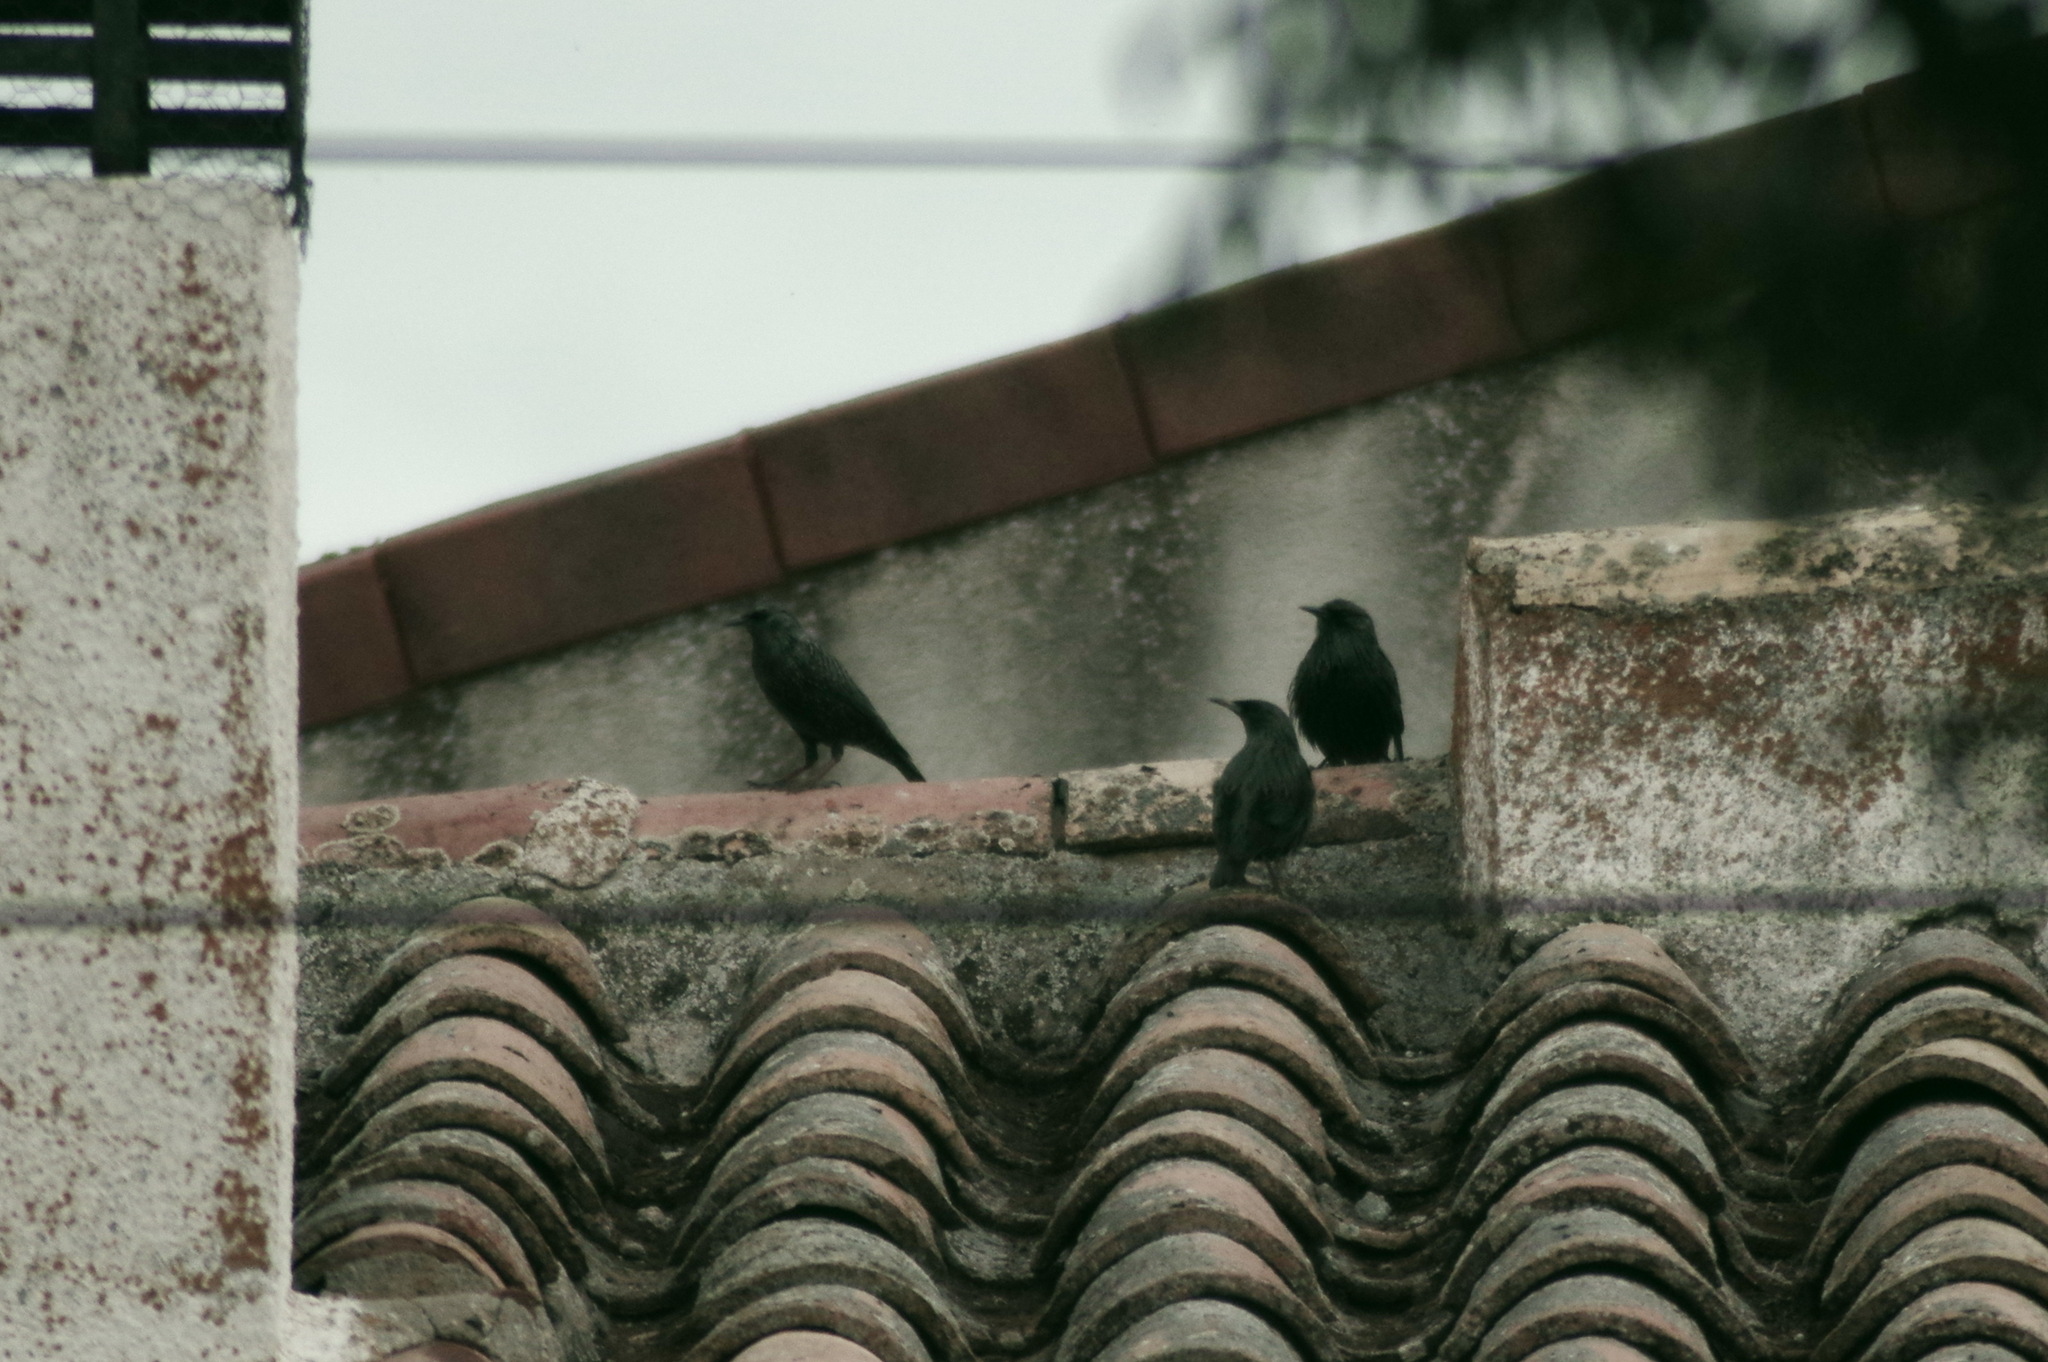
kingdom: Animalia
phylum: Chordata
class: Aves
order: Passeriformes
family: Sturnidae
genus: Sturnus
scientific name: Sturnus unicolor
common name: Spotless starling
